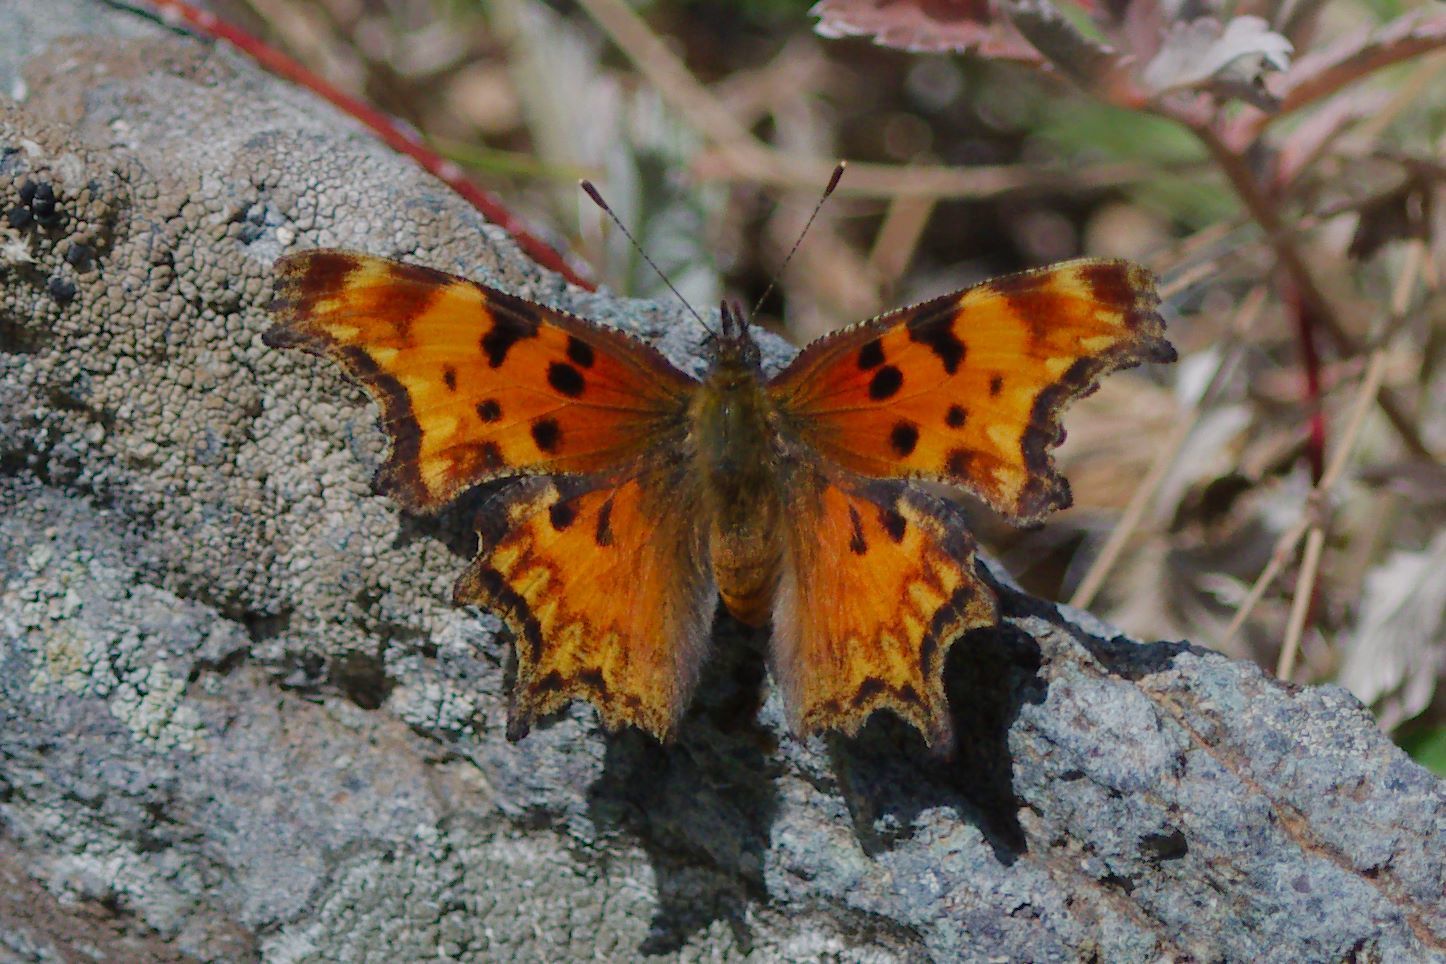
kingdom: Animalia
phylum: Arthropoda
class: Insecta
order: Lepidoptera
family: Nymphalidae
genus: Polygonia
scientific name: Polygonia gracilis
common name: Hoary comma
